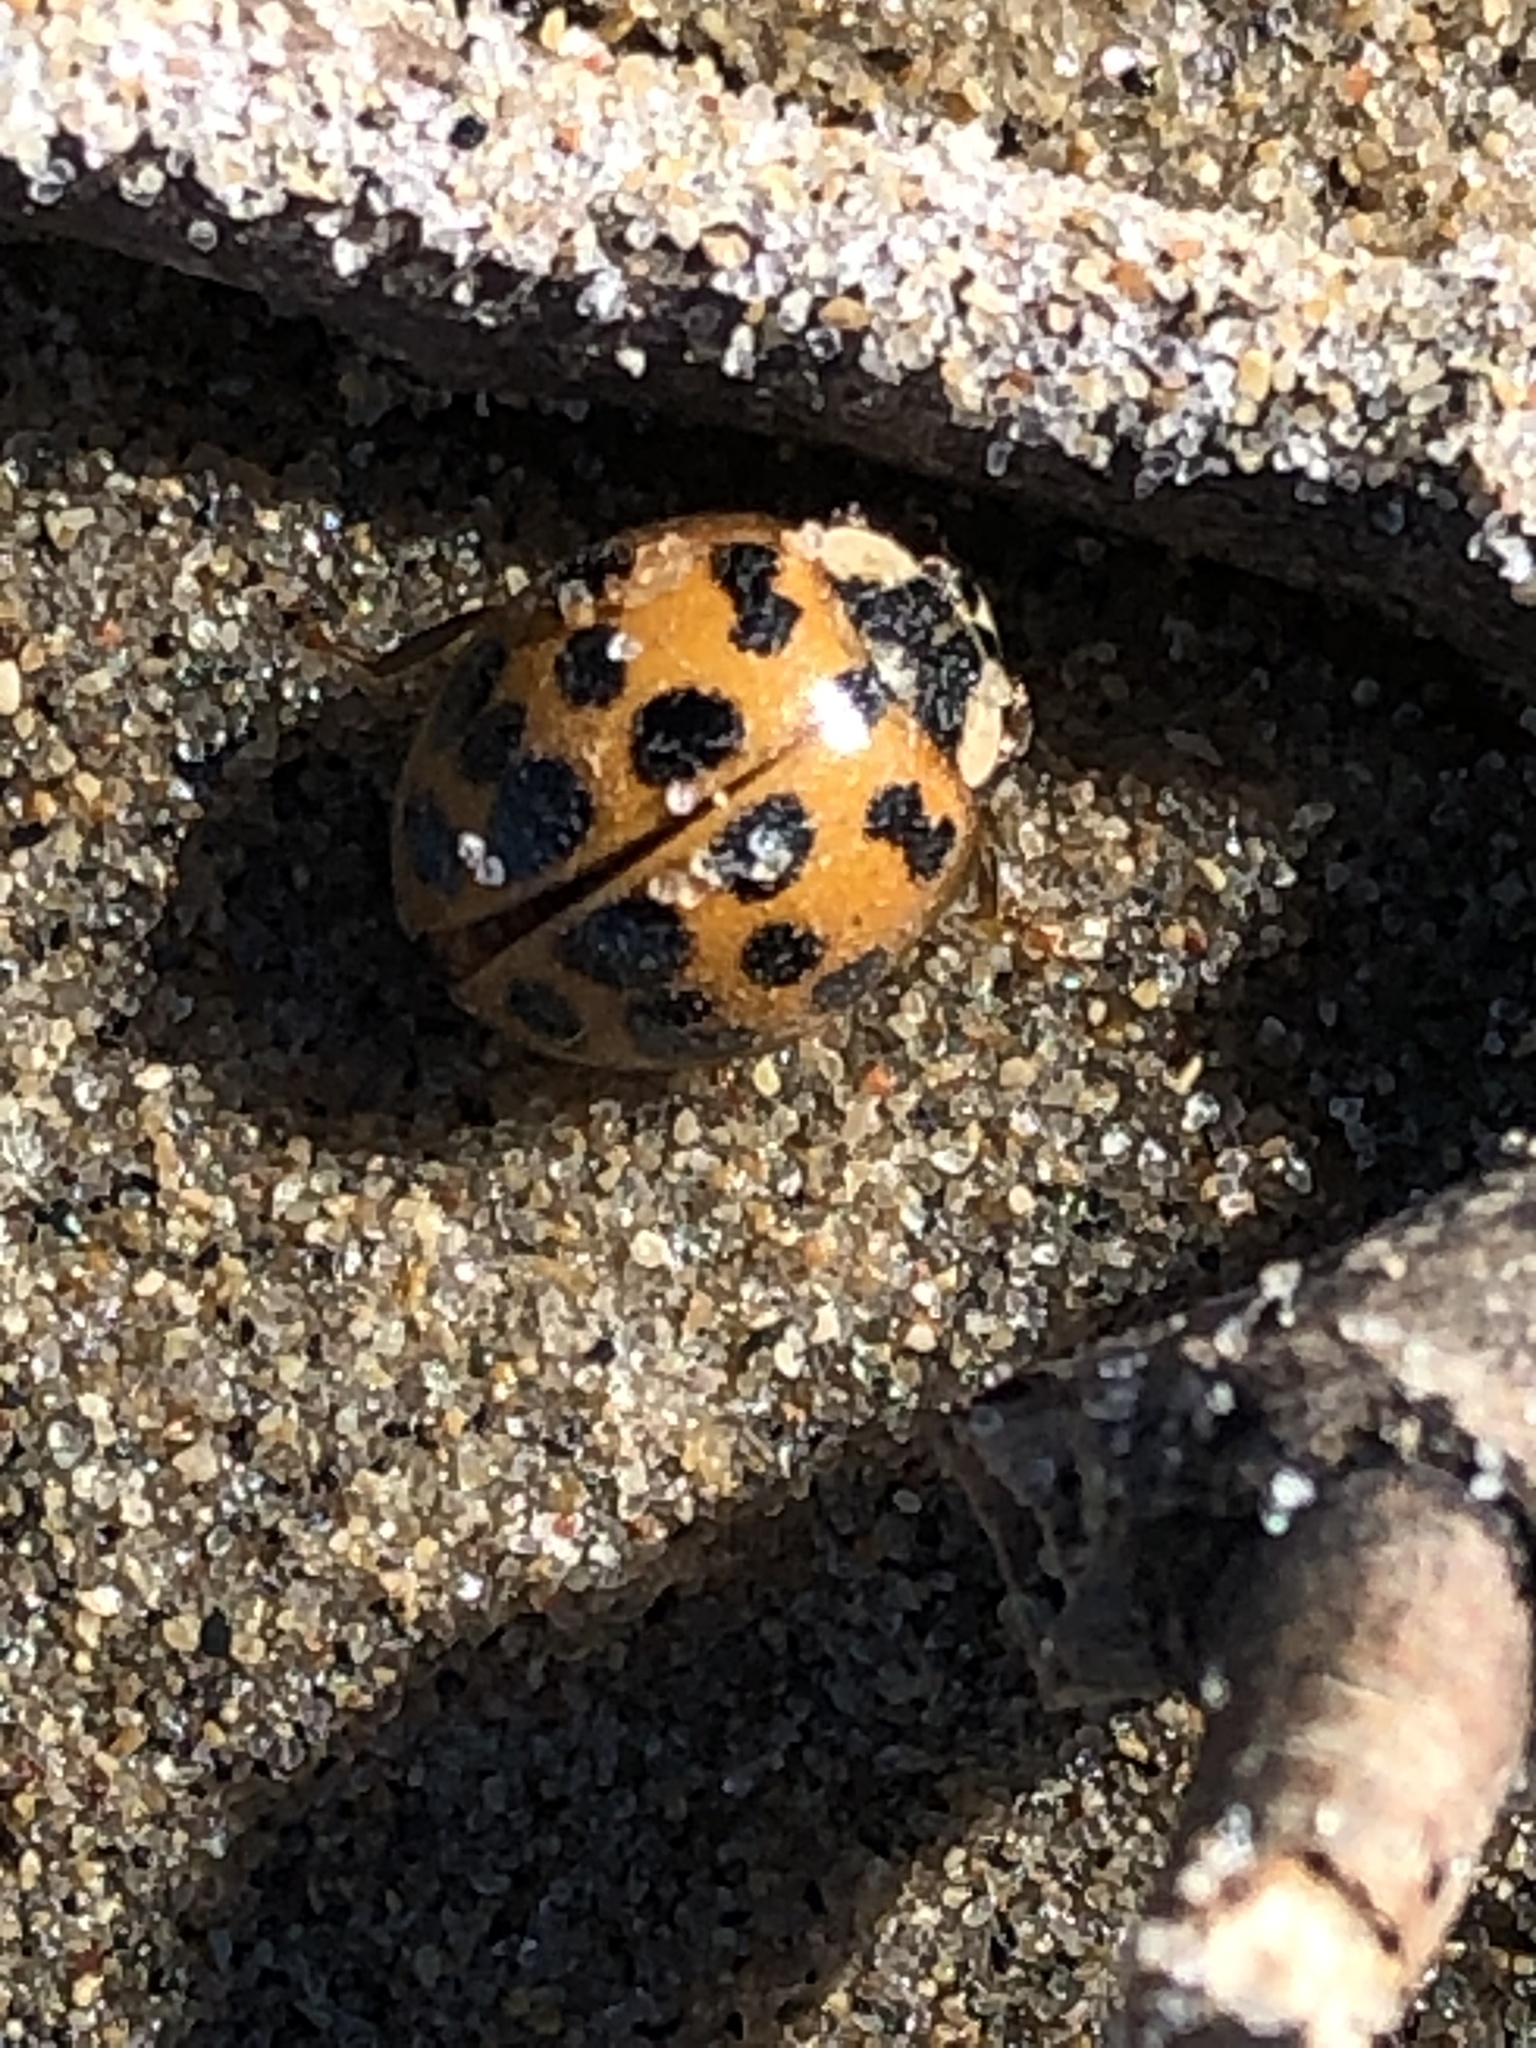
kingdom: Animalia
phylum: Arthropoda
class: Insecta
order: Coleoptera
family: Coccinellidae
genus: Harmonia
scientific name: Harmonia axyridis
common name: Harlequin ladybird
